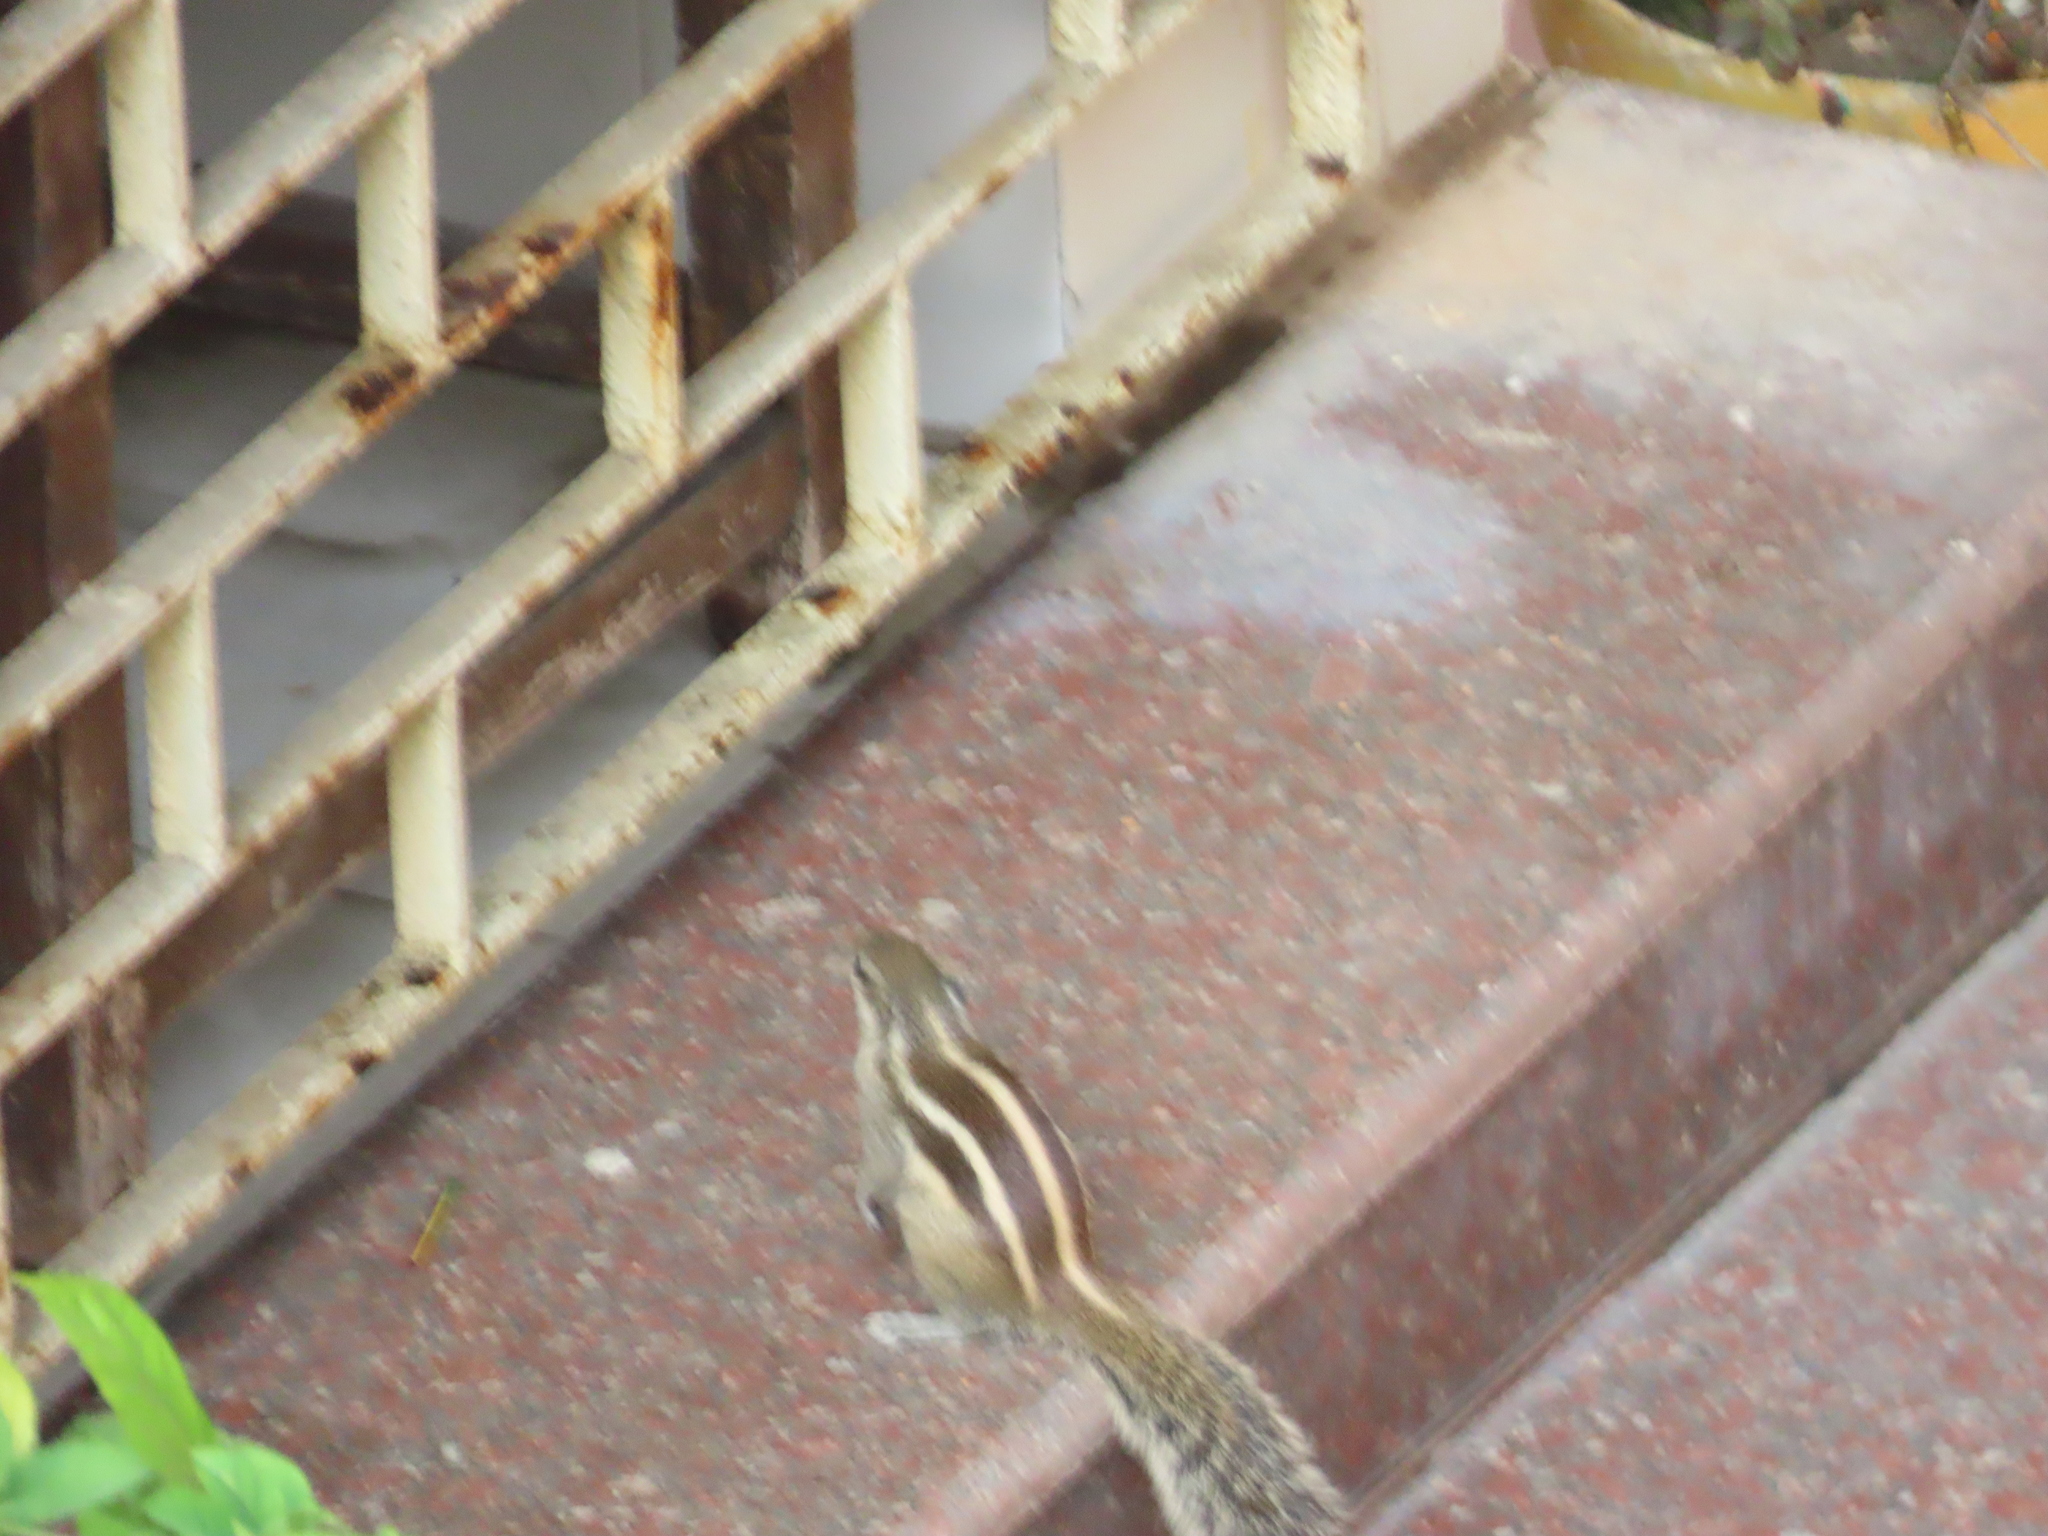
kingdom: Animalia
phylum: Chordata
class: Mammalia
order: Rodentia
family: Sciuridae
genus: Funambulus
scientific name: Funambulus pennantii
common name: Northern palm squirrel
